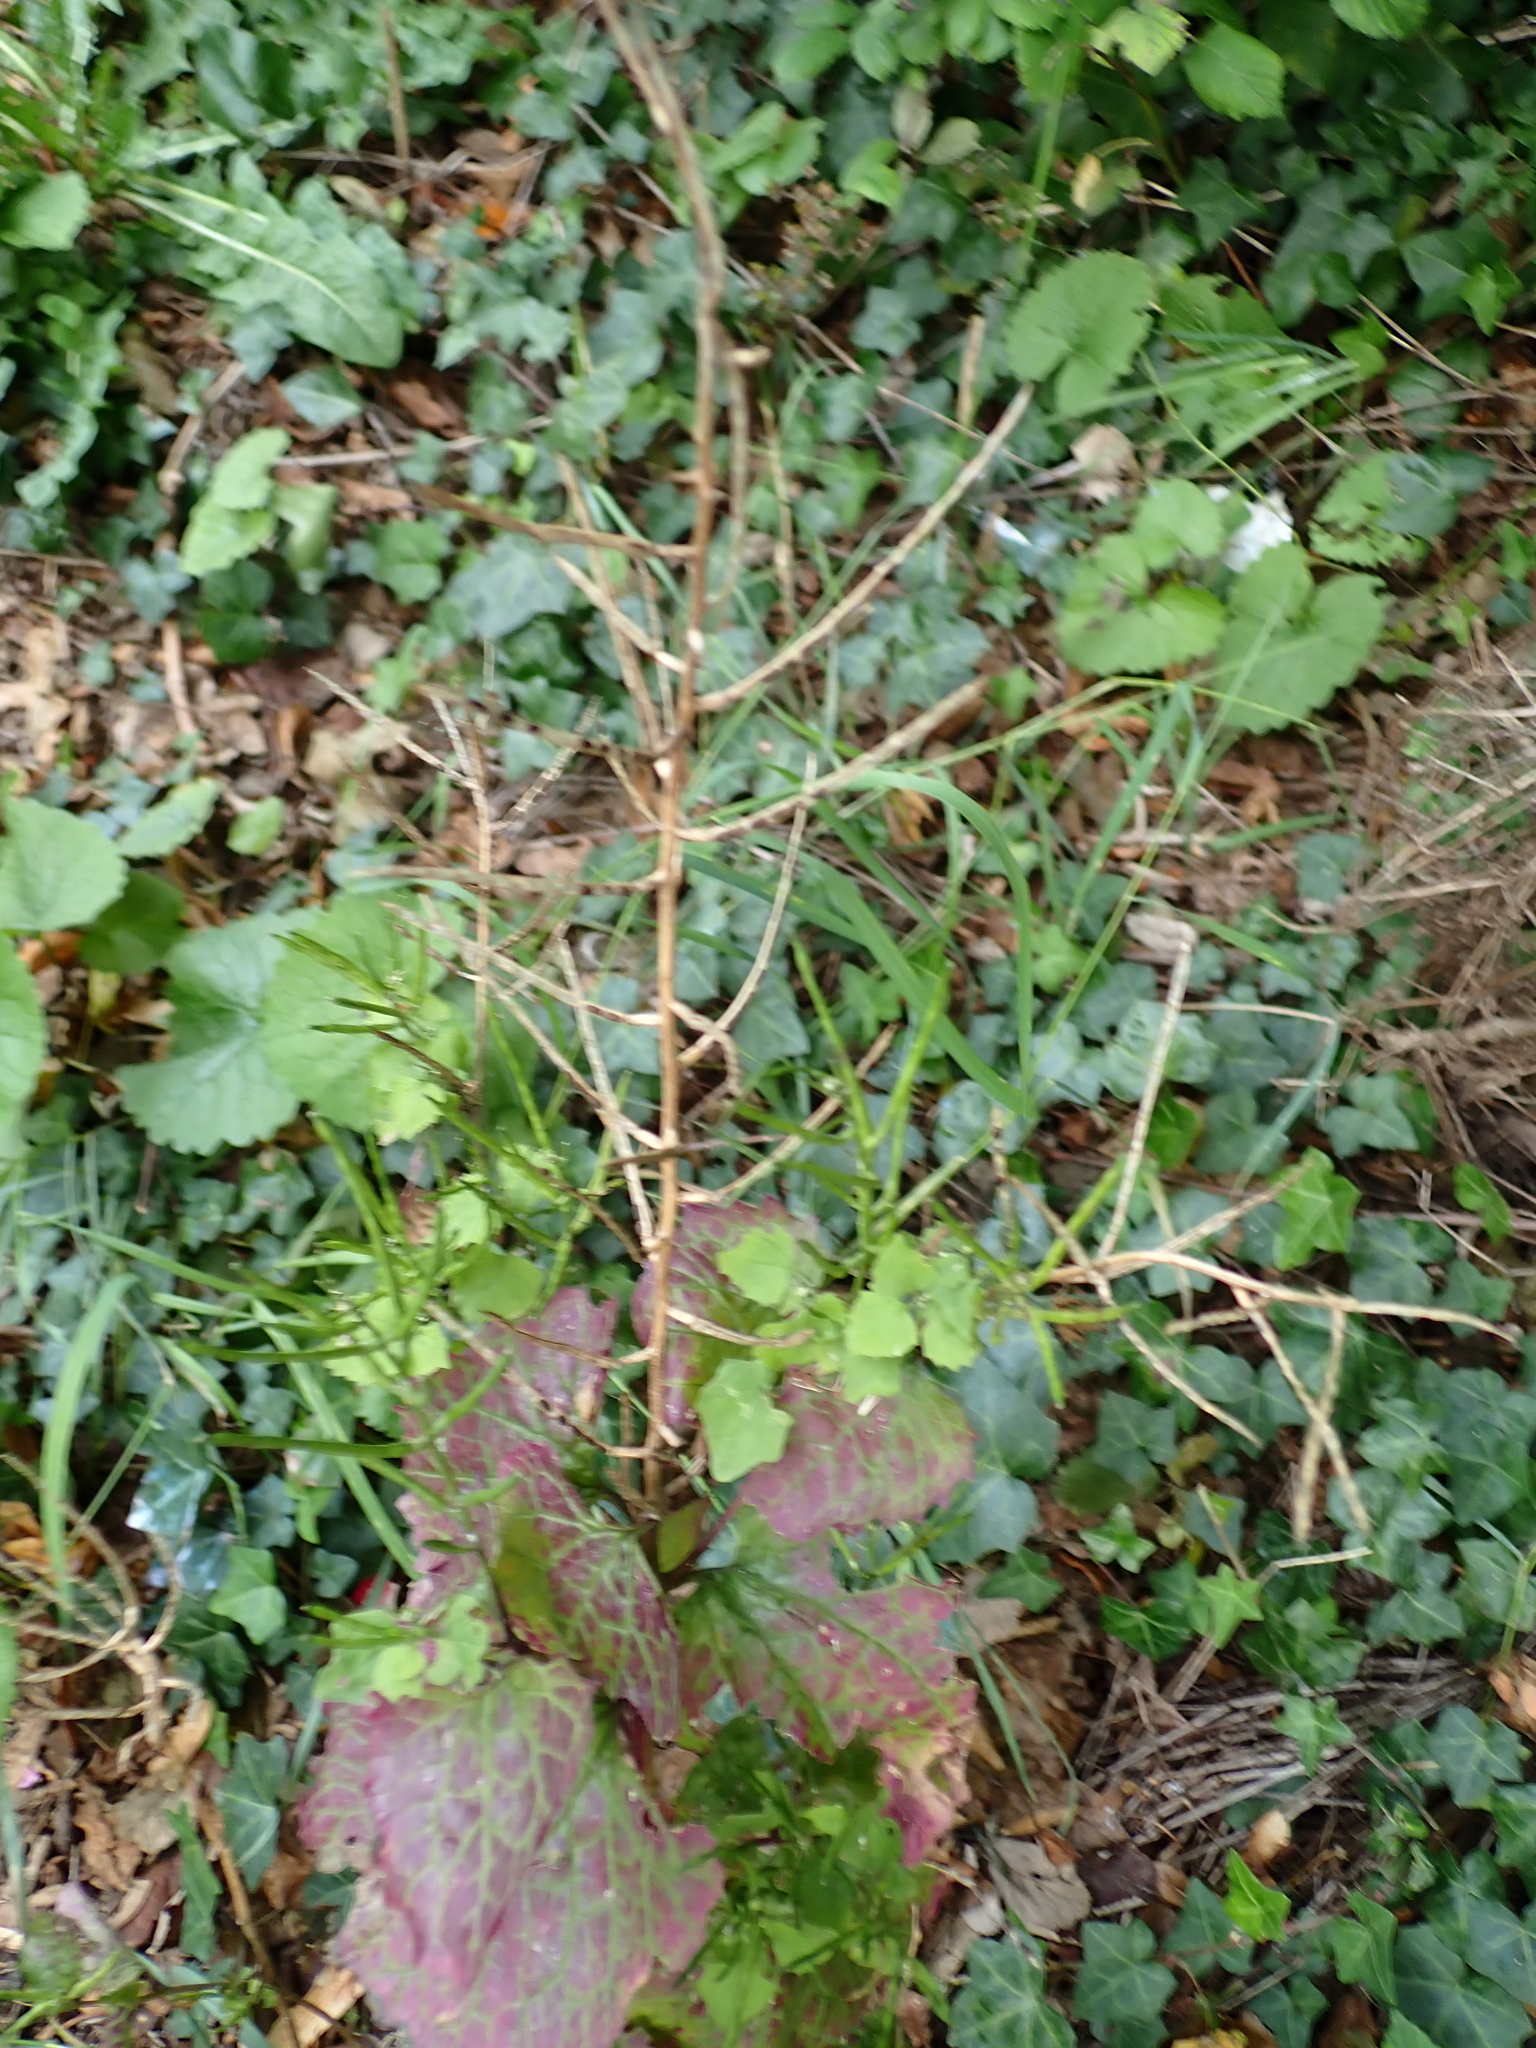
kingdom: Plantae
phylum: Tracheophyta
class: Magnoliopsida
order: Brassicales
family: Brassicaceae
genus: Alliaria
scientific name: Alliaria petiolata
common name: Garlic mustard
